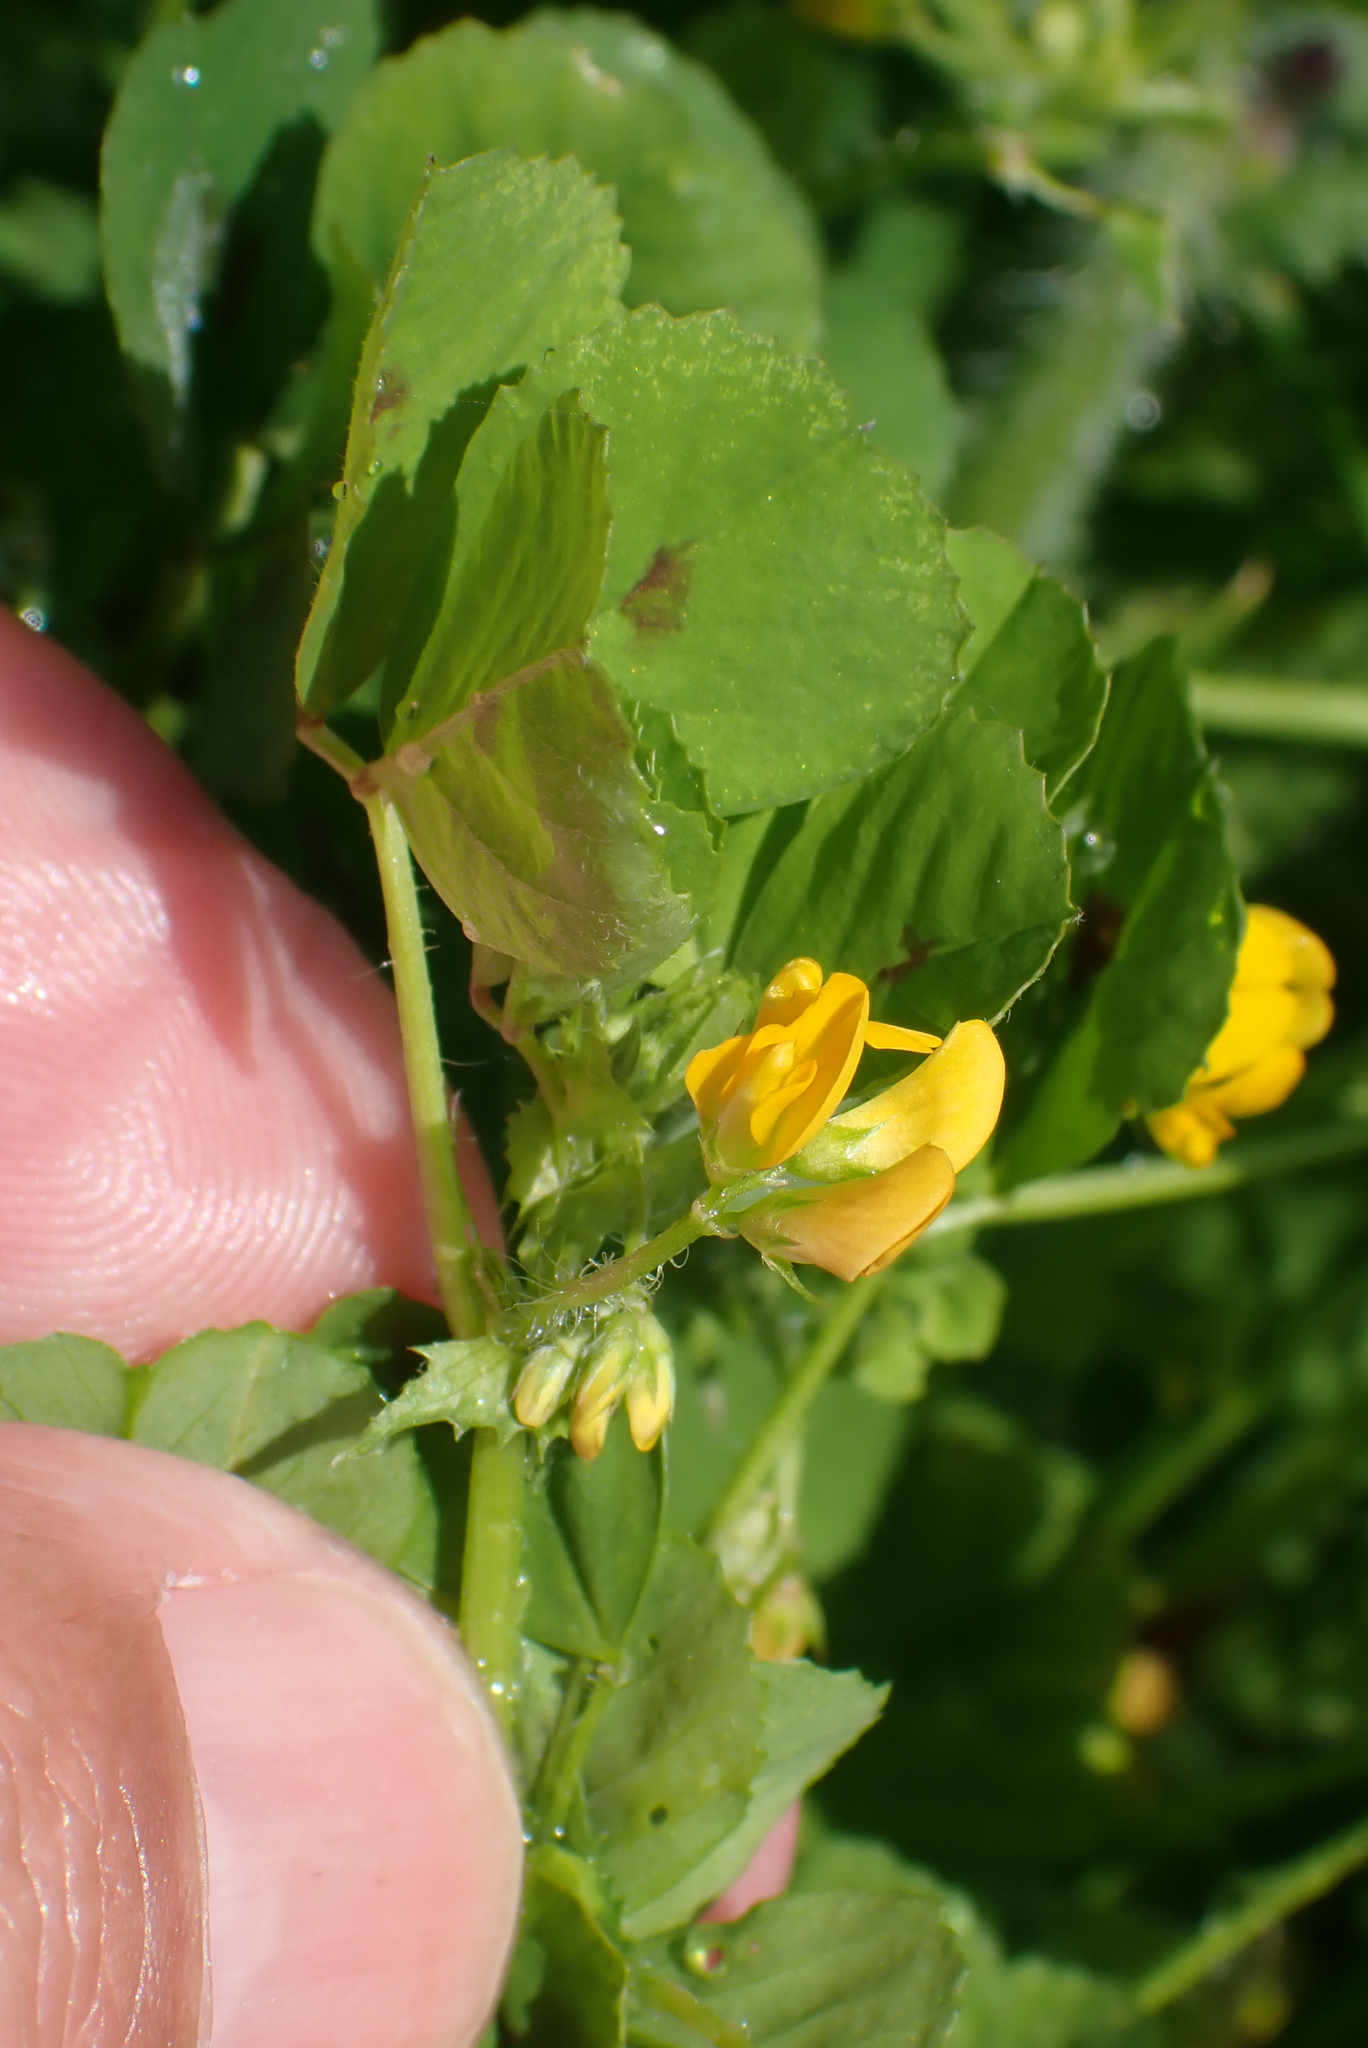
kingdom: Plantae
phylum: Tracheophyta
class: Magnoliopsida
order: Fabales
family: Fabaceae
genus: Medicago
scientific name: Medicago arabica
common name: Spotted medick
